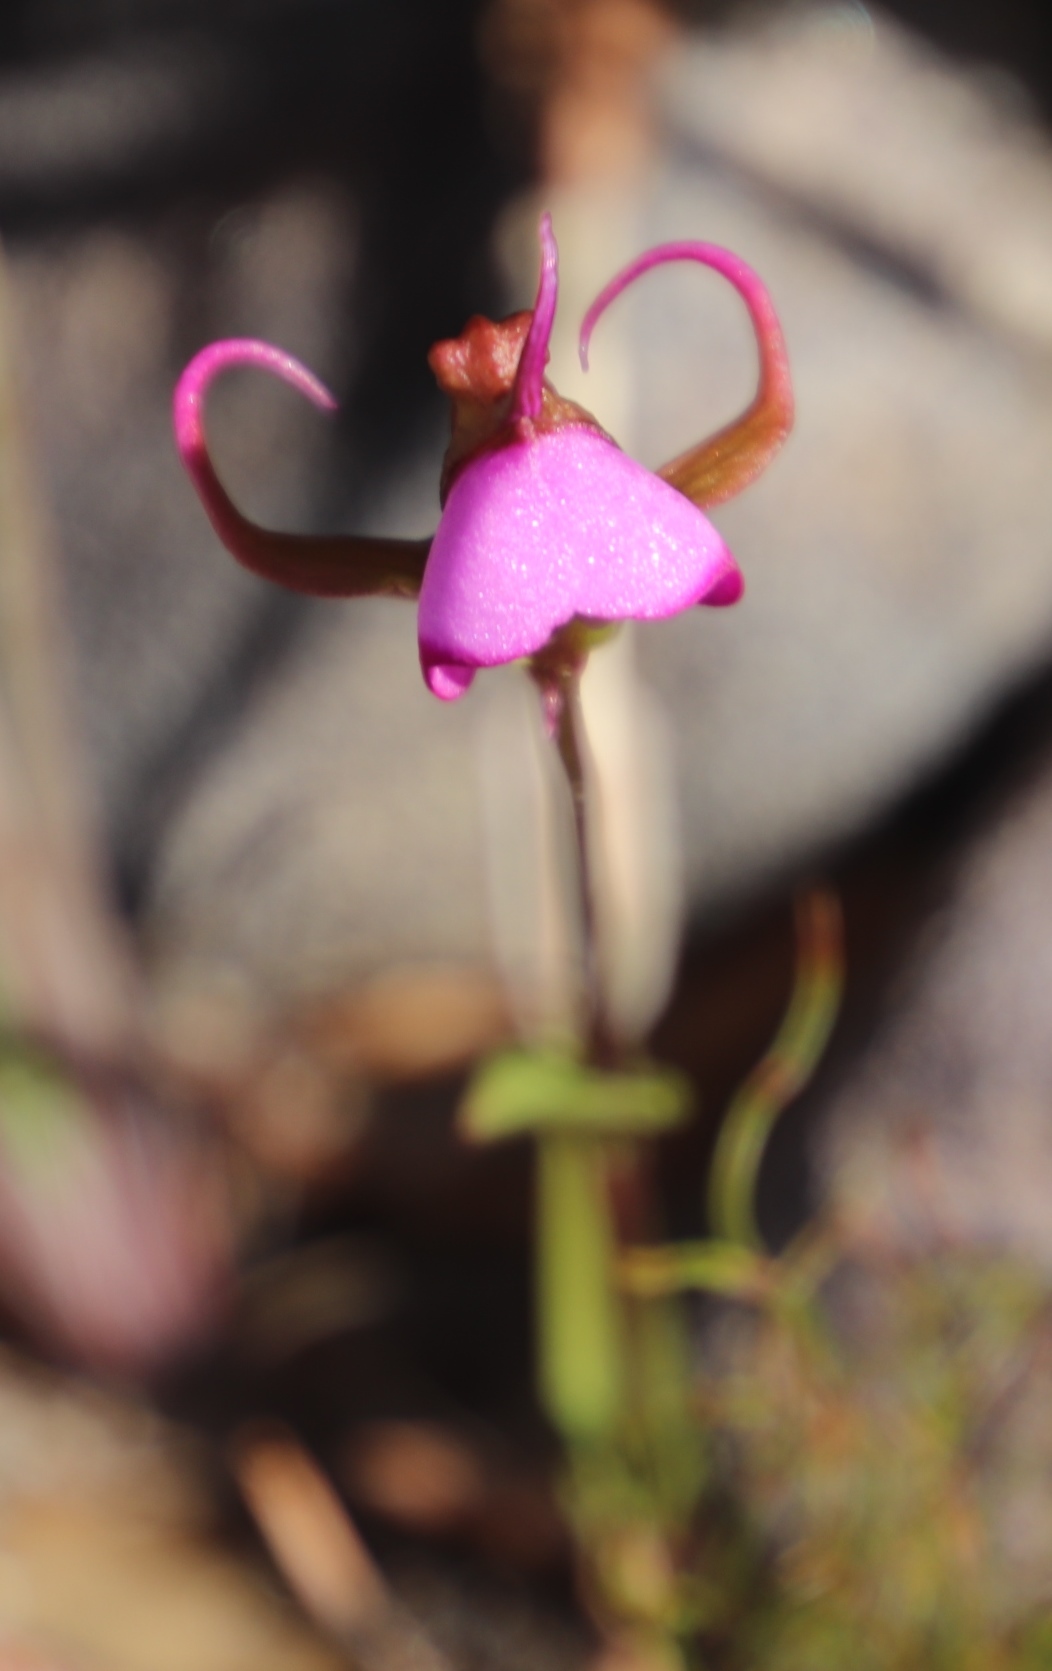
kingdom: Plantae
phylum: Tracheophyta
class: Liliopsida
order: Asparagales
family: Orchidaceae
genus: Disperis
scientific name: Disperis capensis
